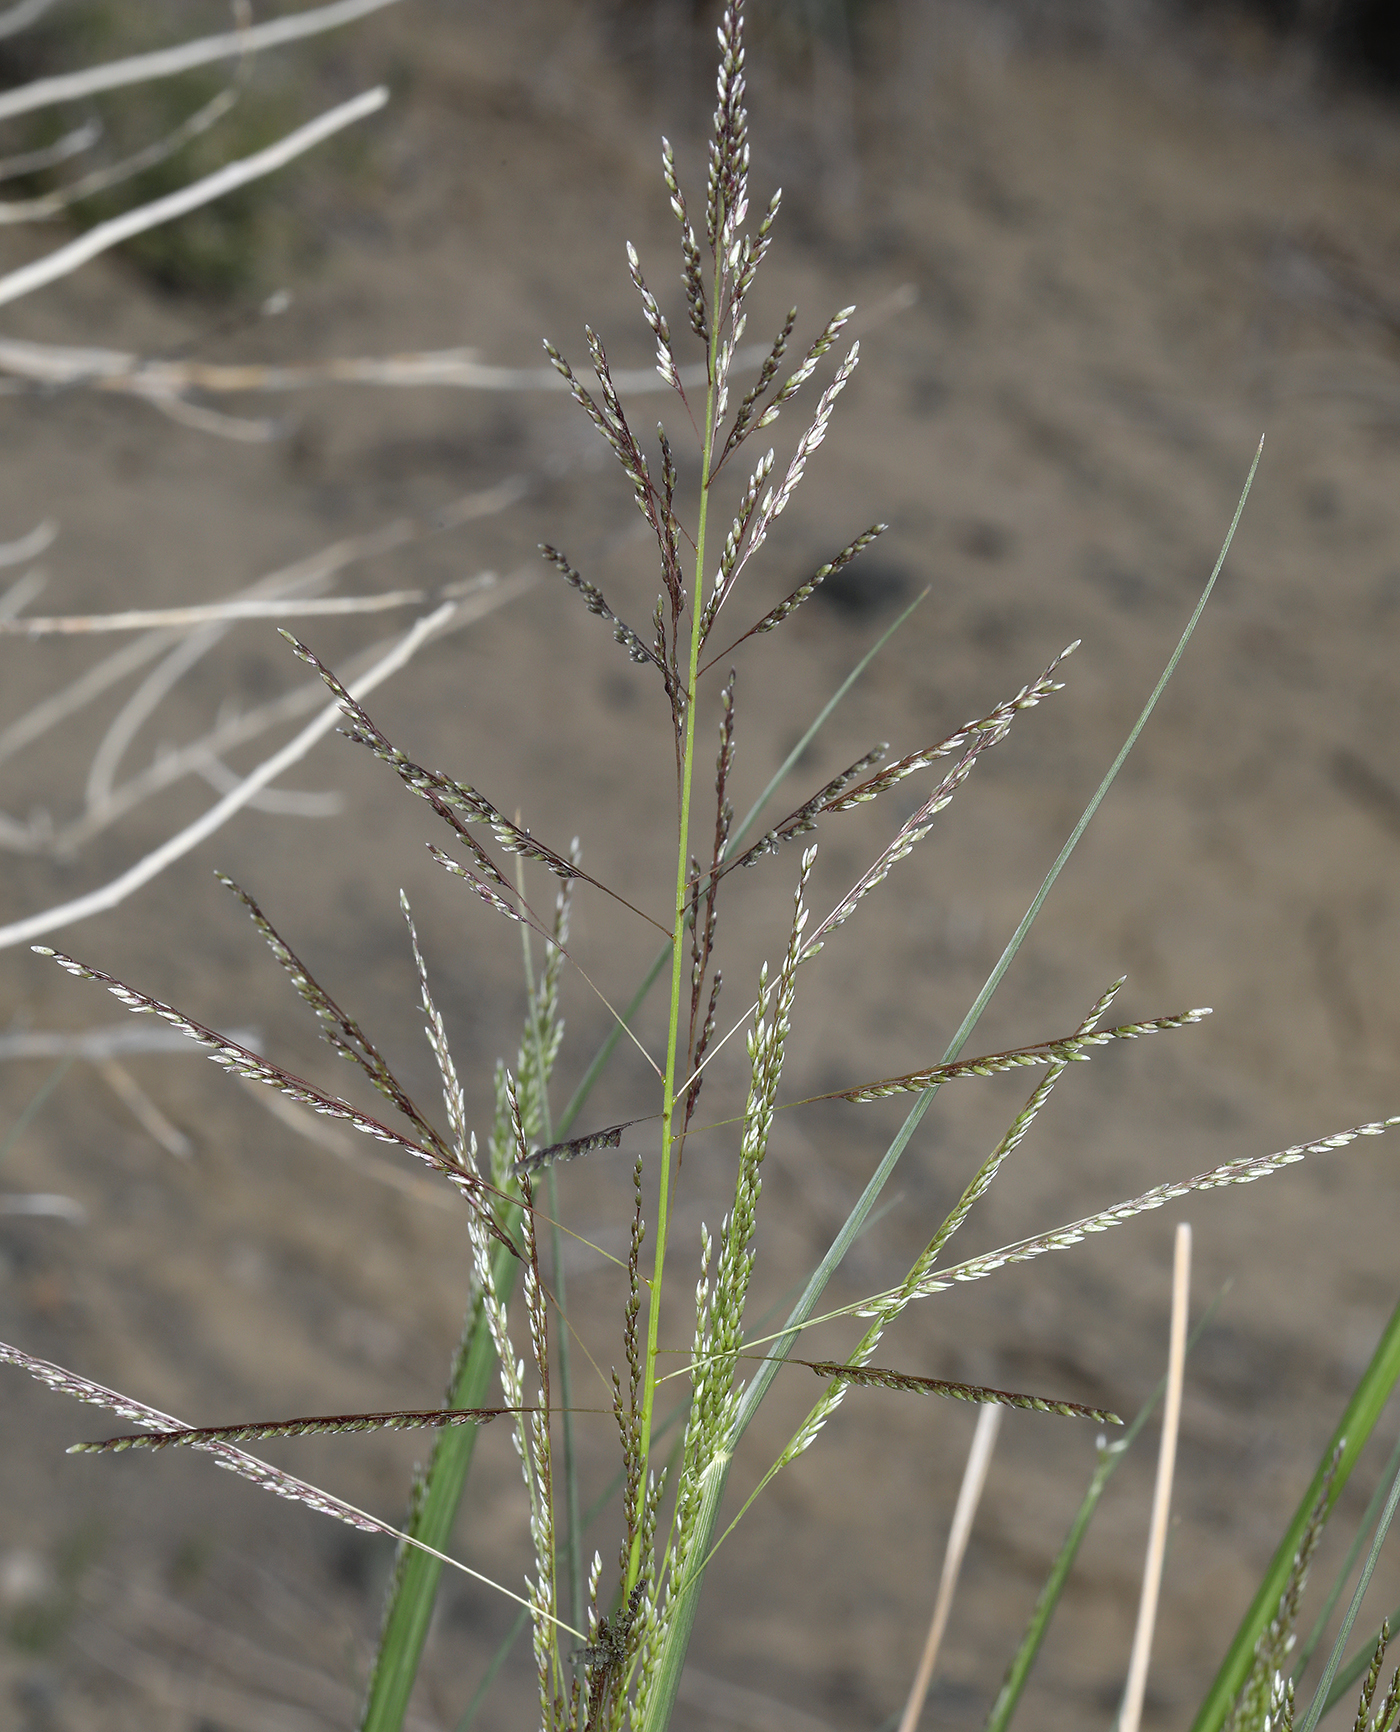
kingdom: Plantae
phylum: Tracheophyta
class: Liliopsida
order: Poales
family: Poaceae
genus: Sporobolus
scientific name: Sporobolus airoides
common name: Alkali sacaton
